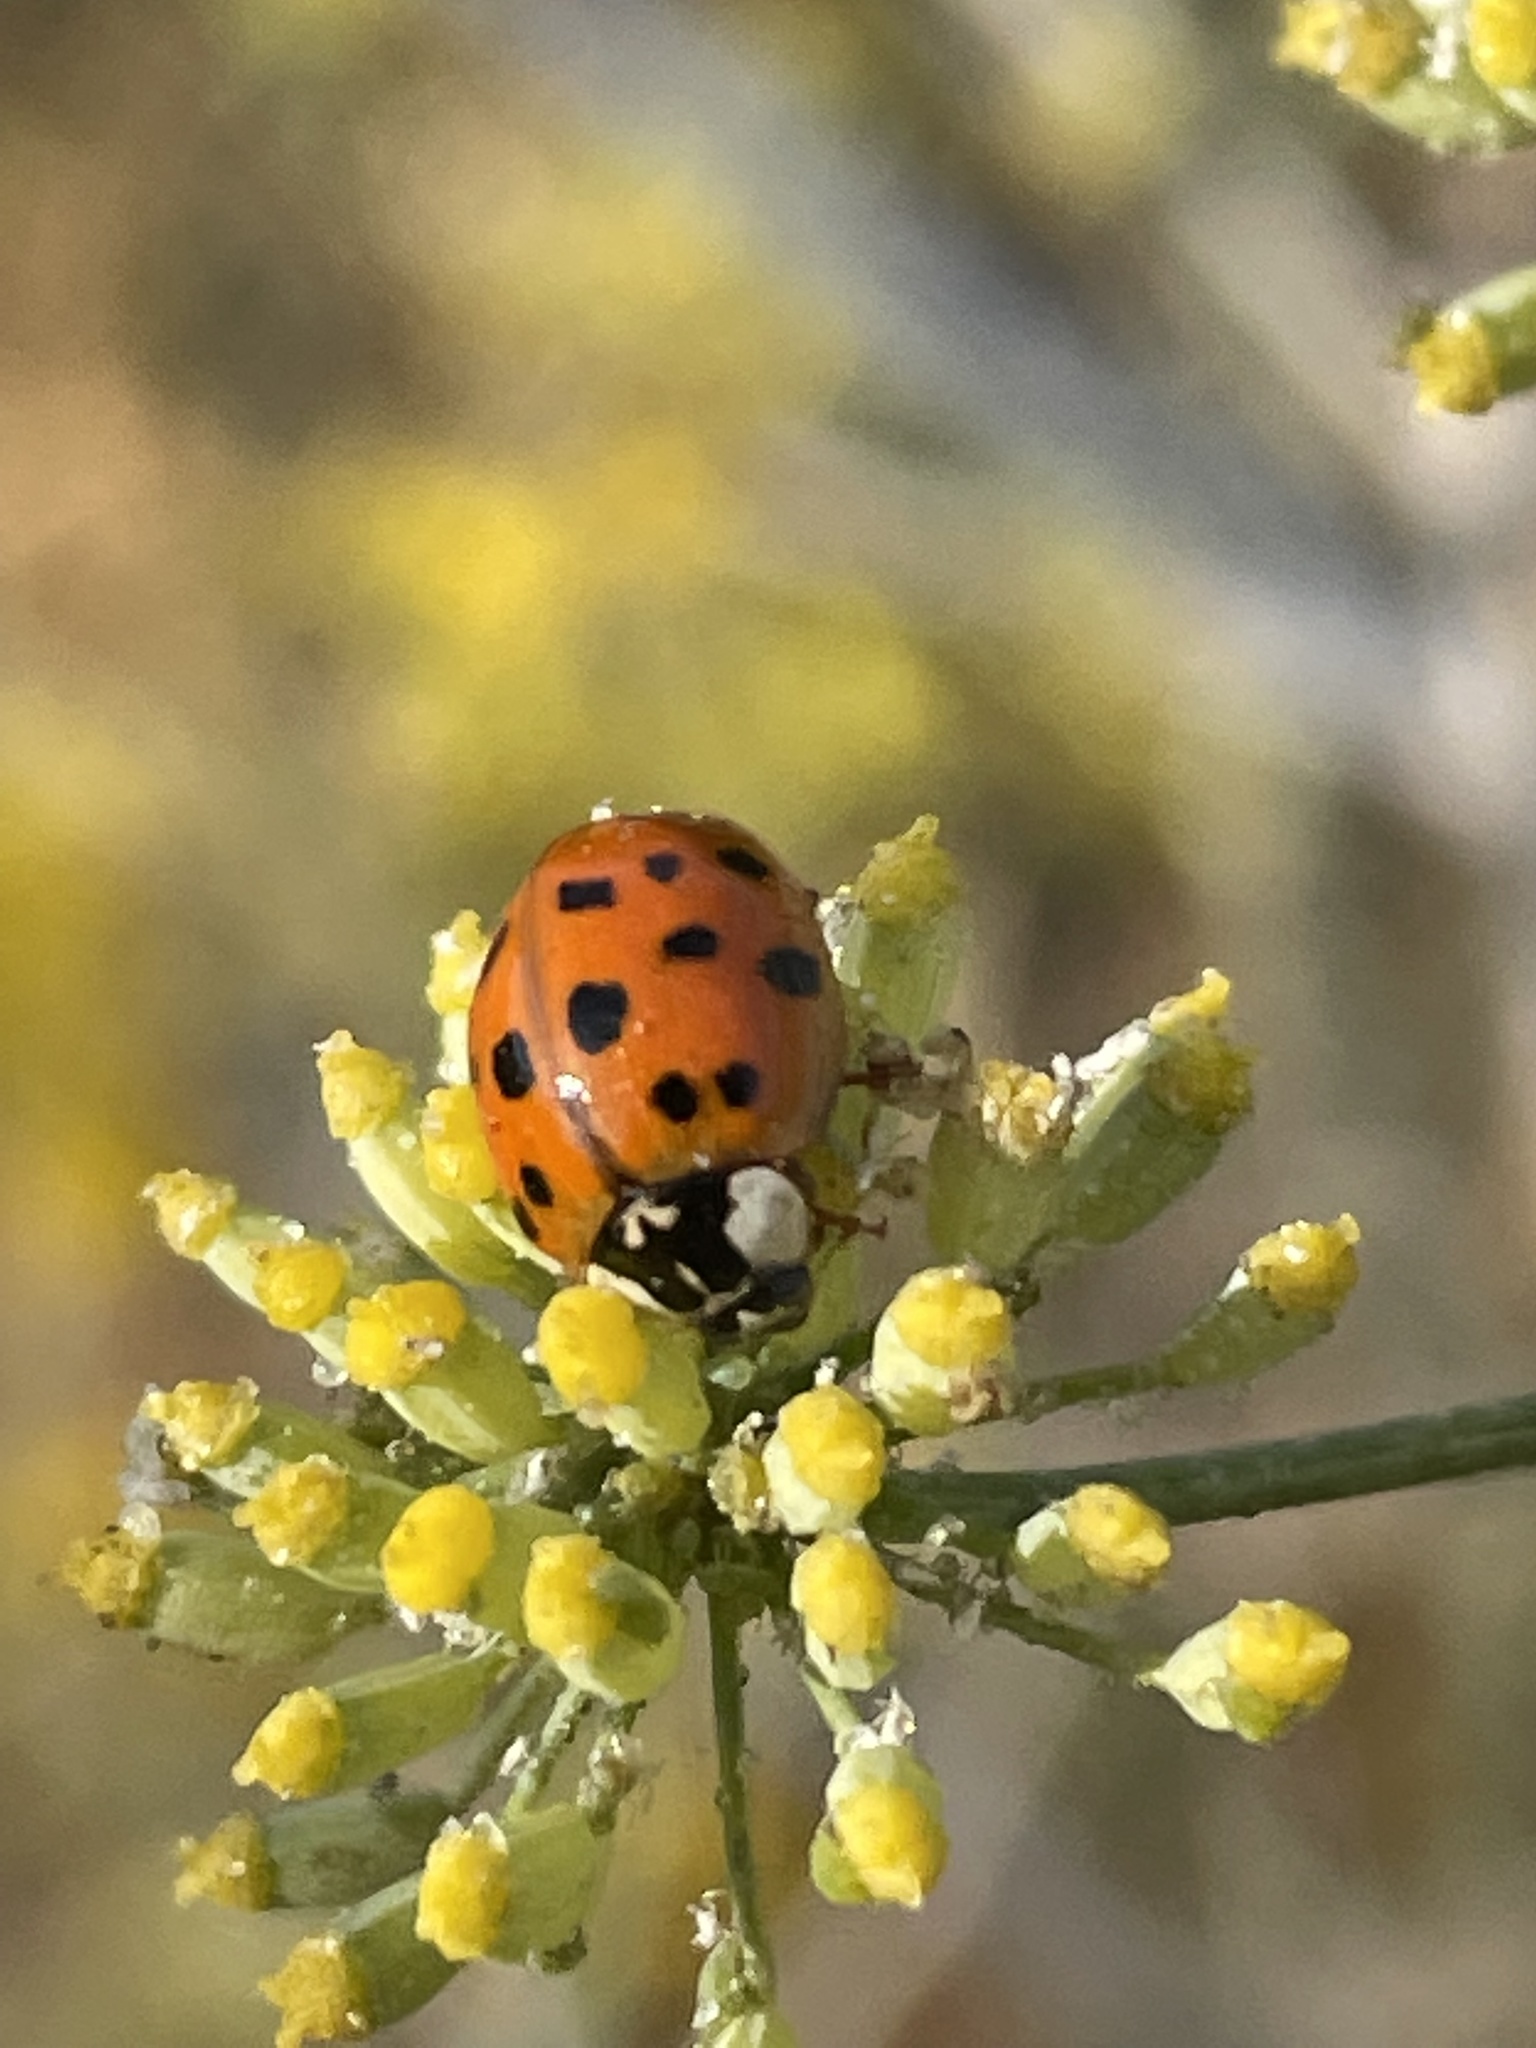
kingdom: Animalia
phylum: Arthropoda
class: Insecta
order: Coleoptera
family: Coccinellidae
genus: Harmonia
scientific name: Harmonia axyridis
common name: Harlequin ladybird
